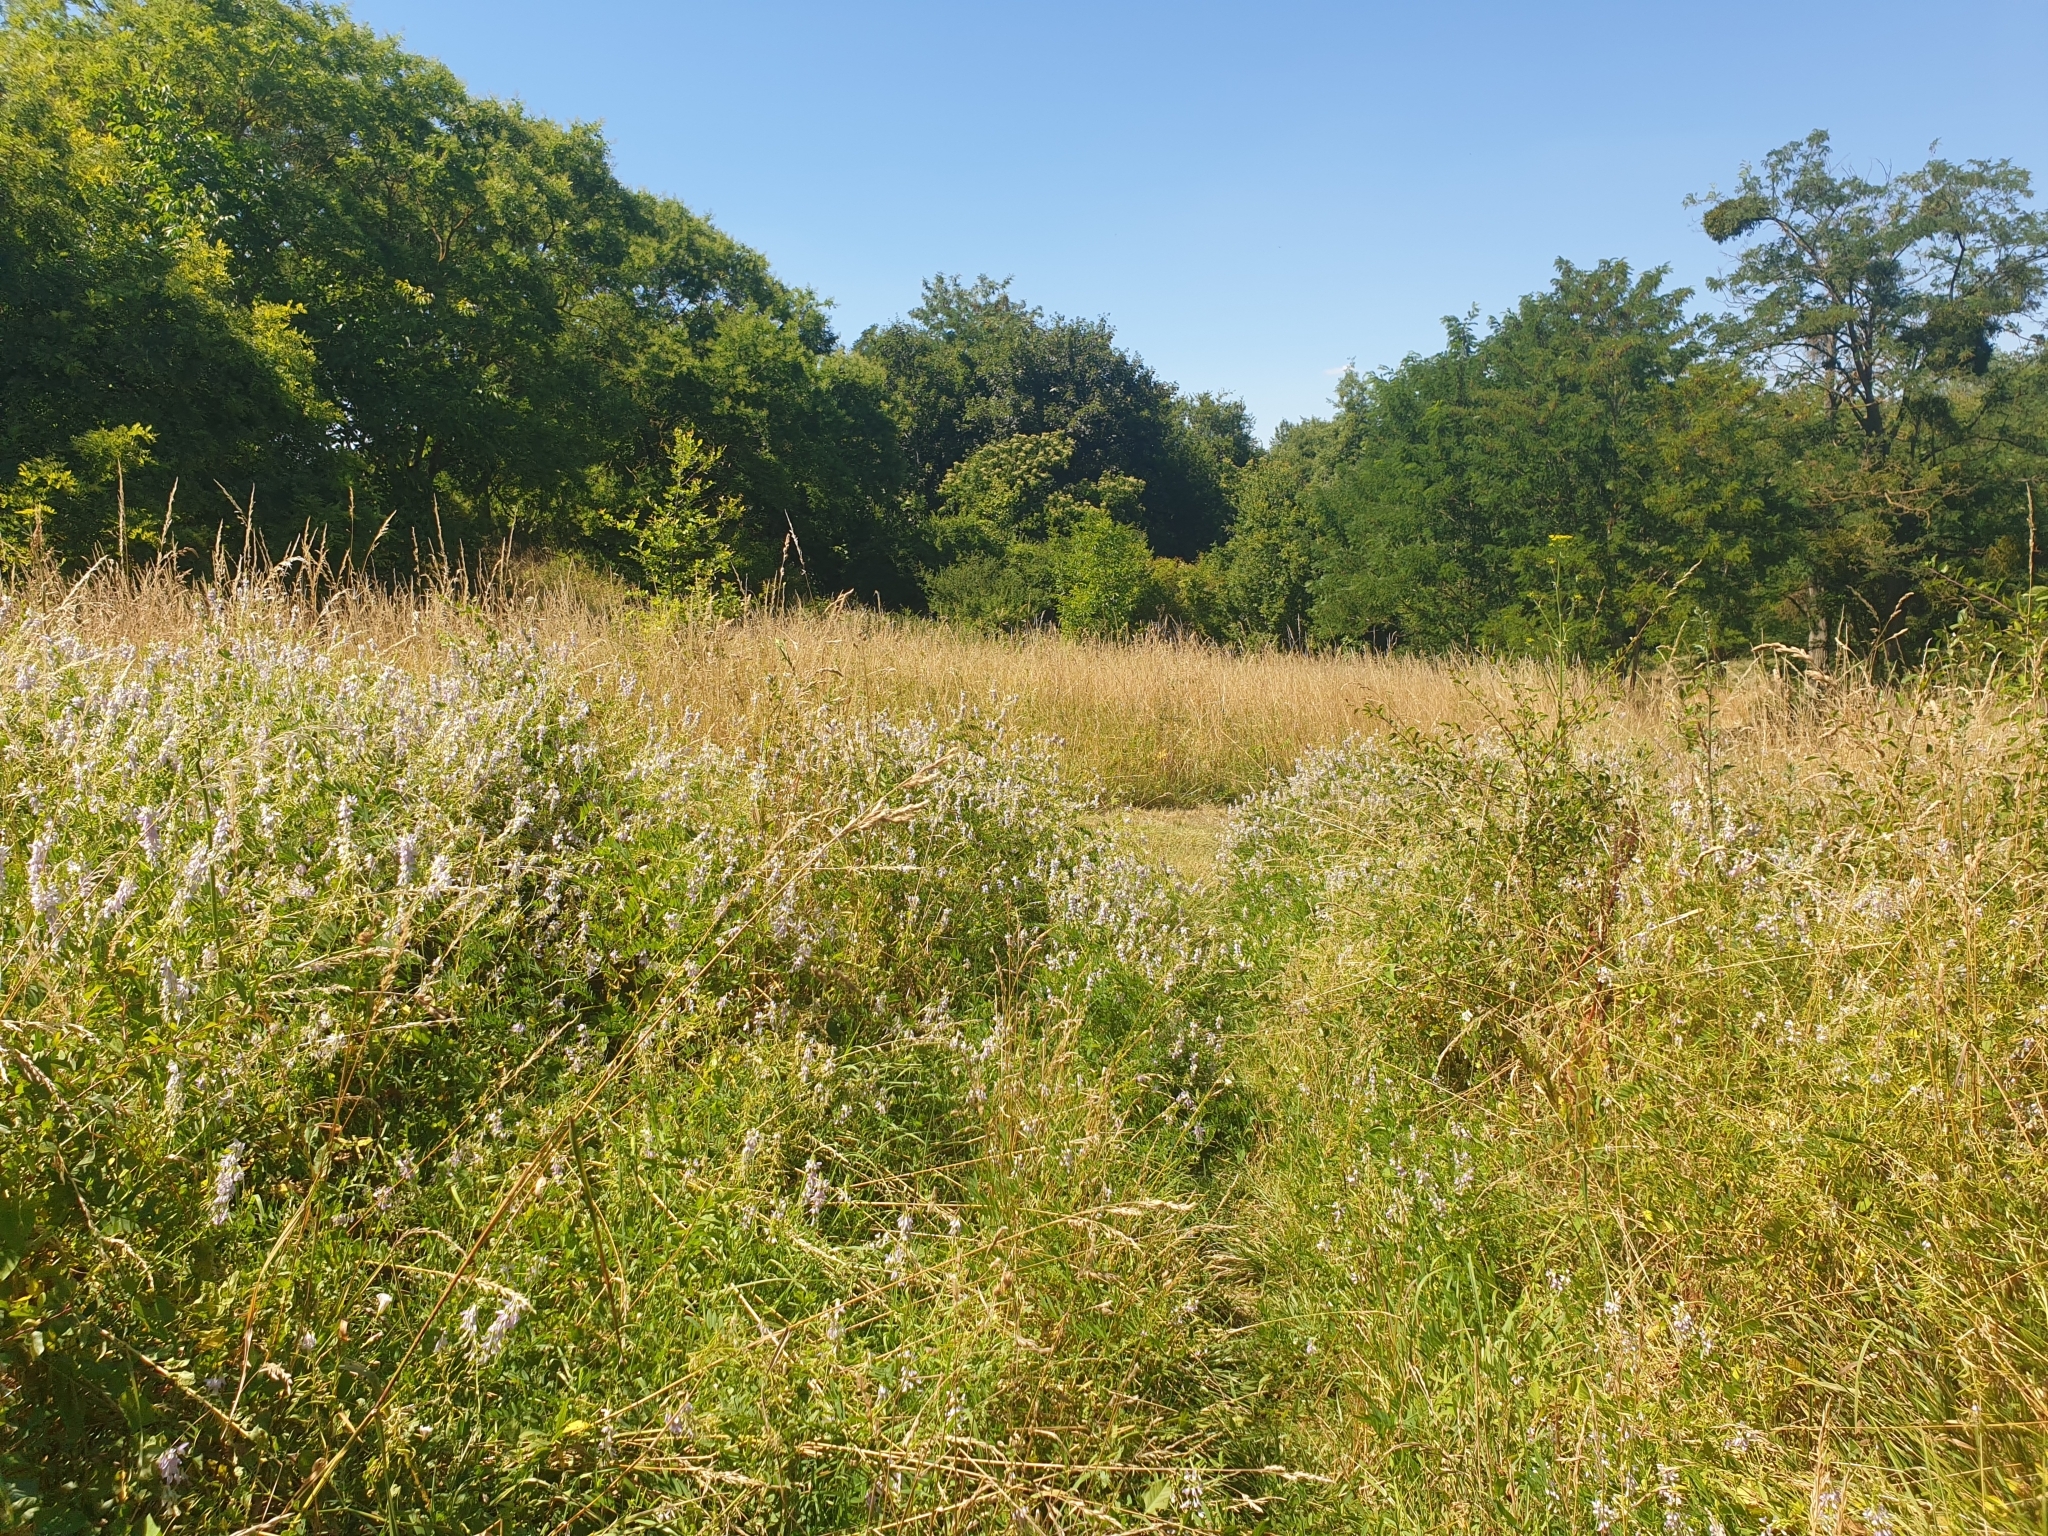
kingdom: Plantae
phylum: Tracheophyta
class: Magnoliopsida
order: Fabales
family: Fabaceae
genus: Galega
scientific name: Galega officinalis
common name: Goat's-rue
